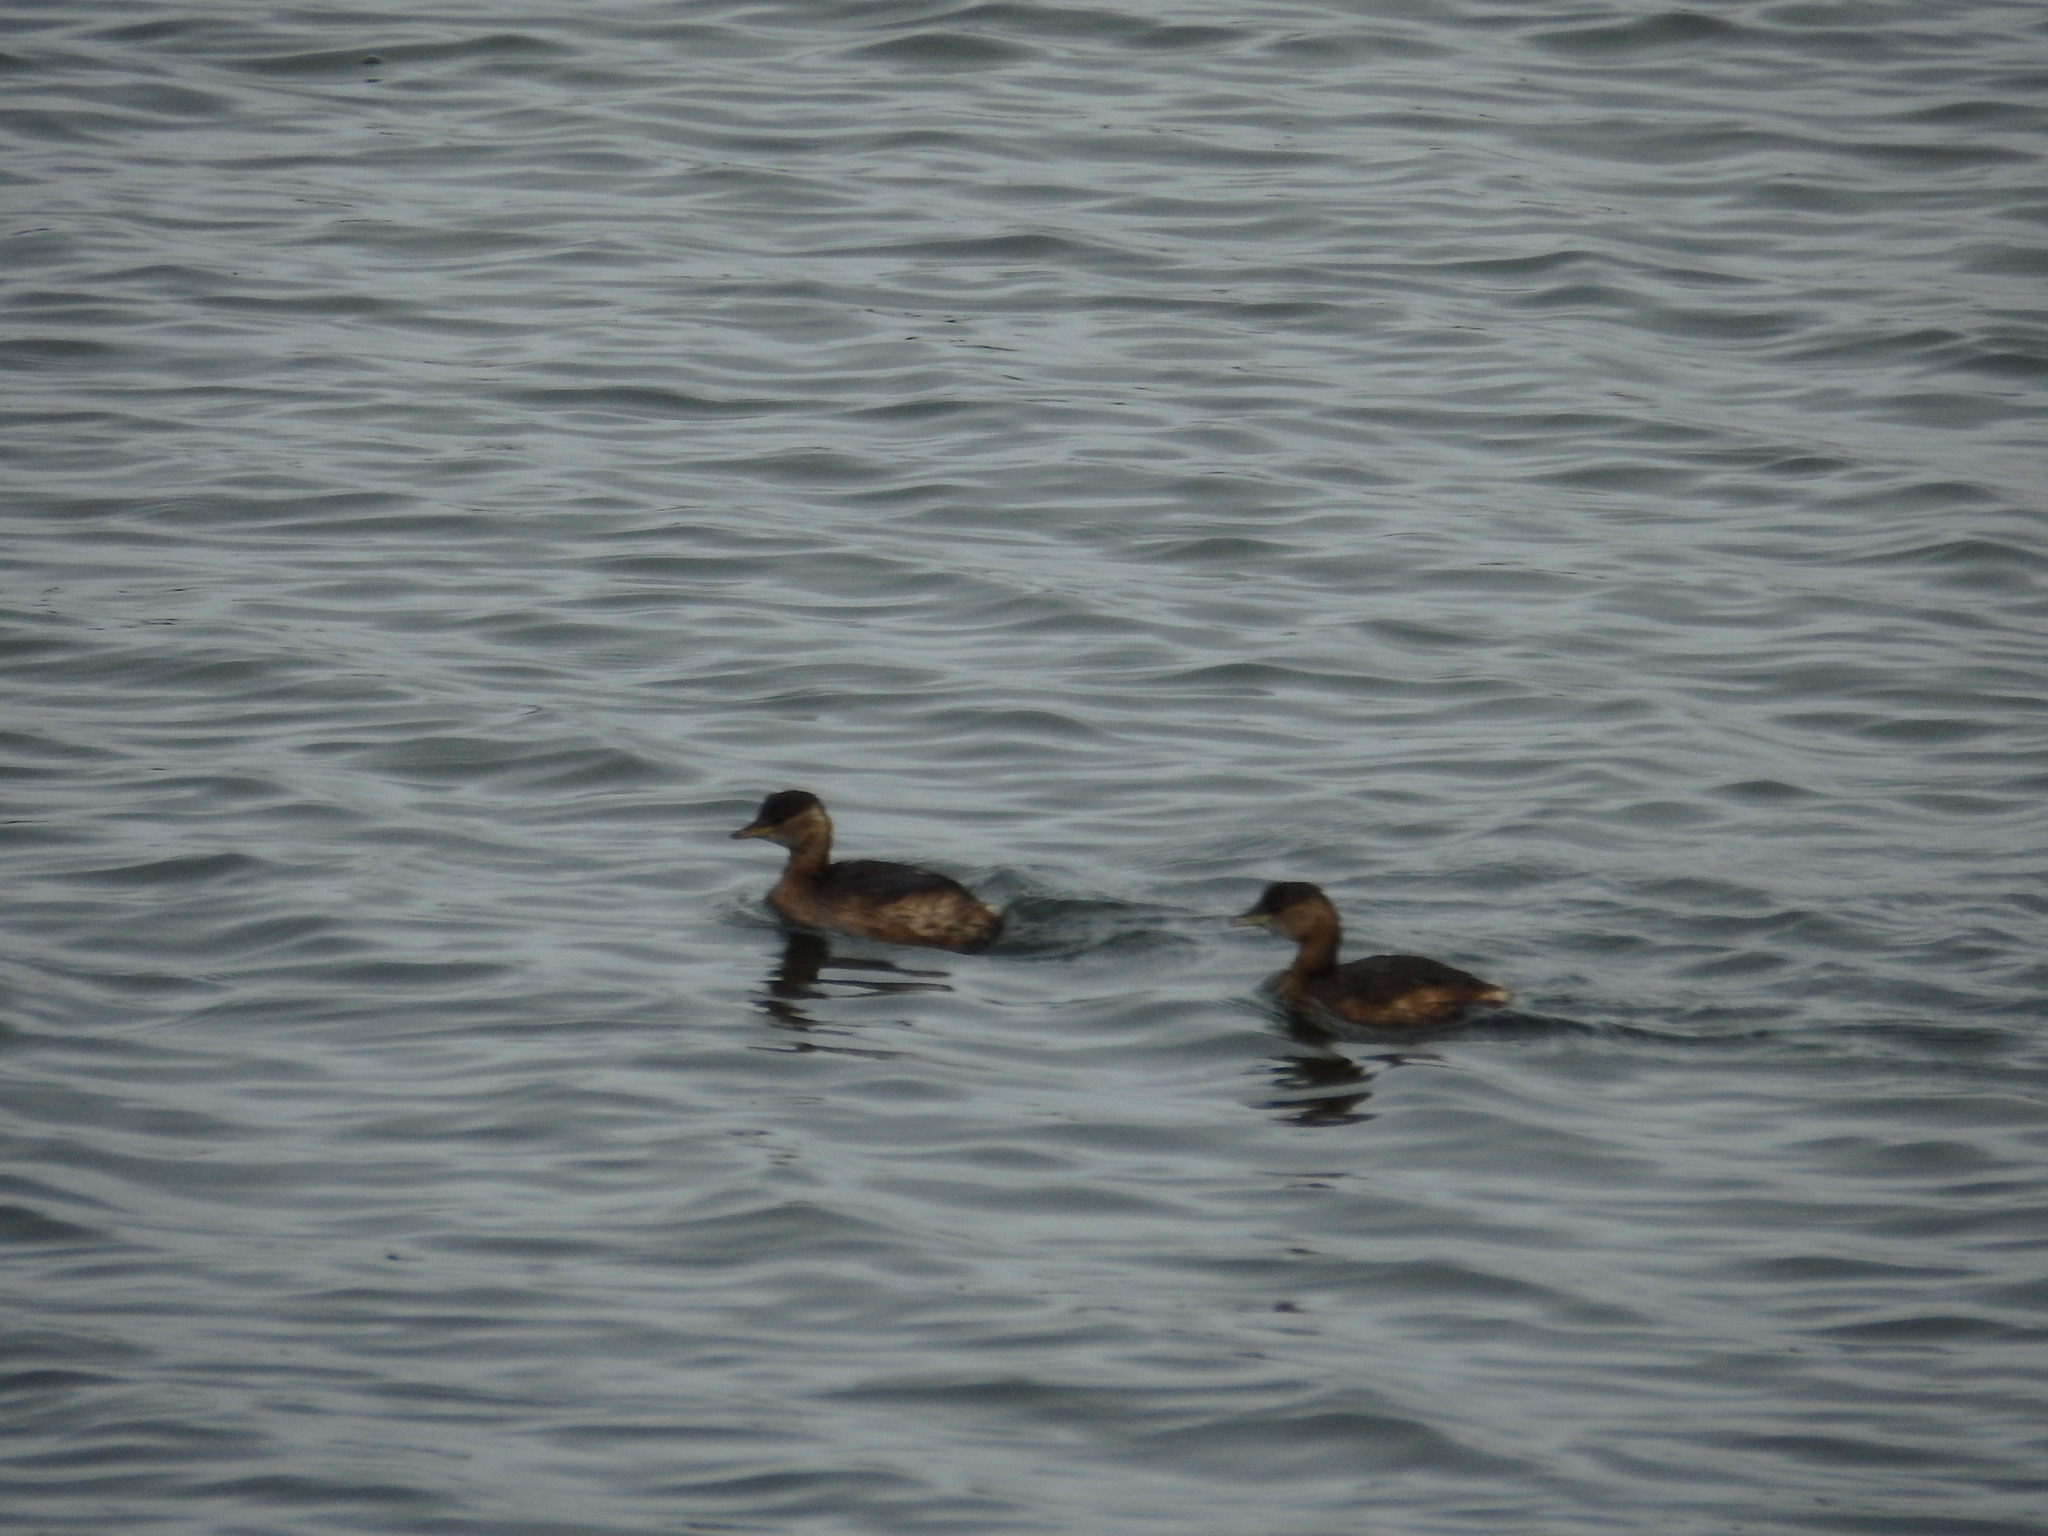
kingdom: Animalia
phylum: Chordata
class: Aves
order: Podicipediformes
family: Podicipedidae
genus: Tachybaptus
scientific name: Tachybaptus ruficollis
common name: Little grebe
